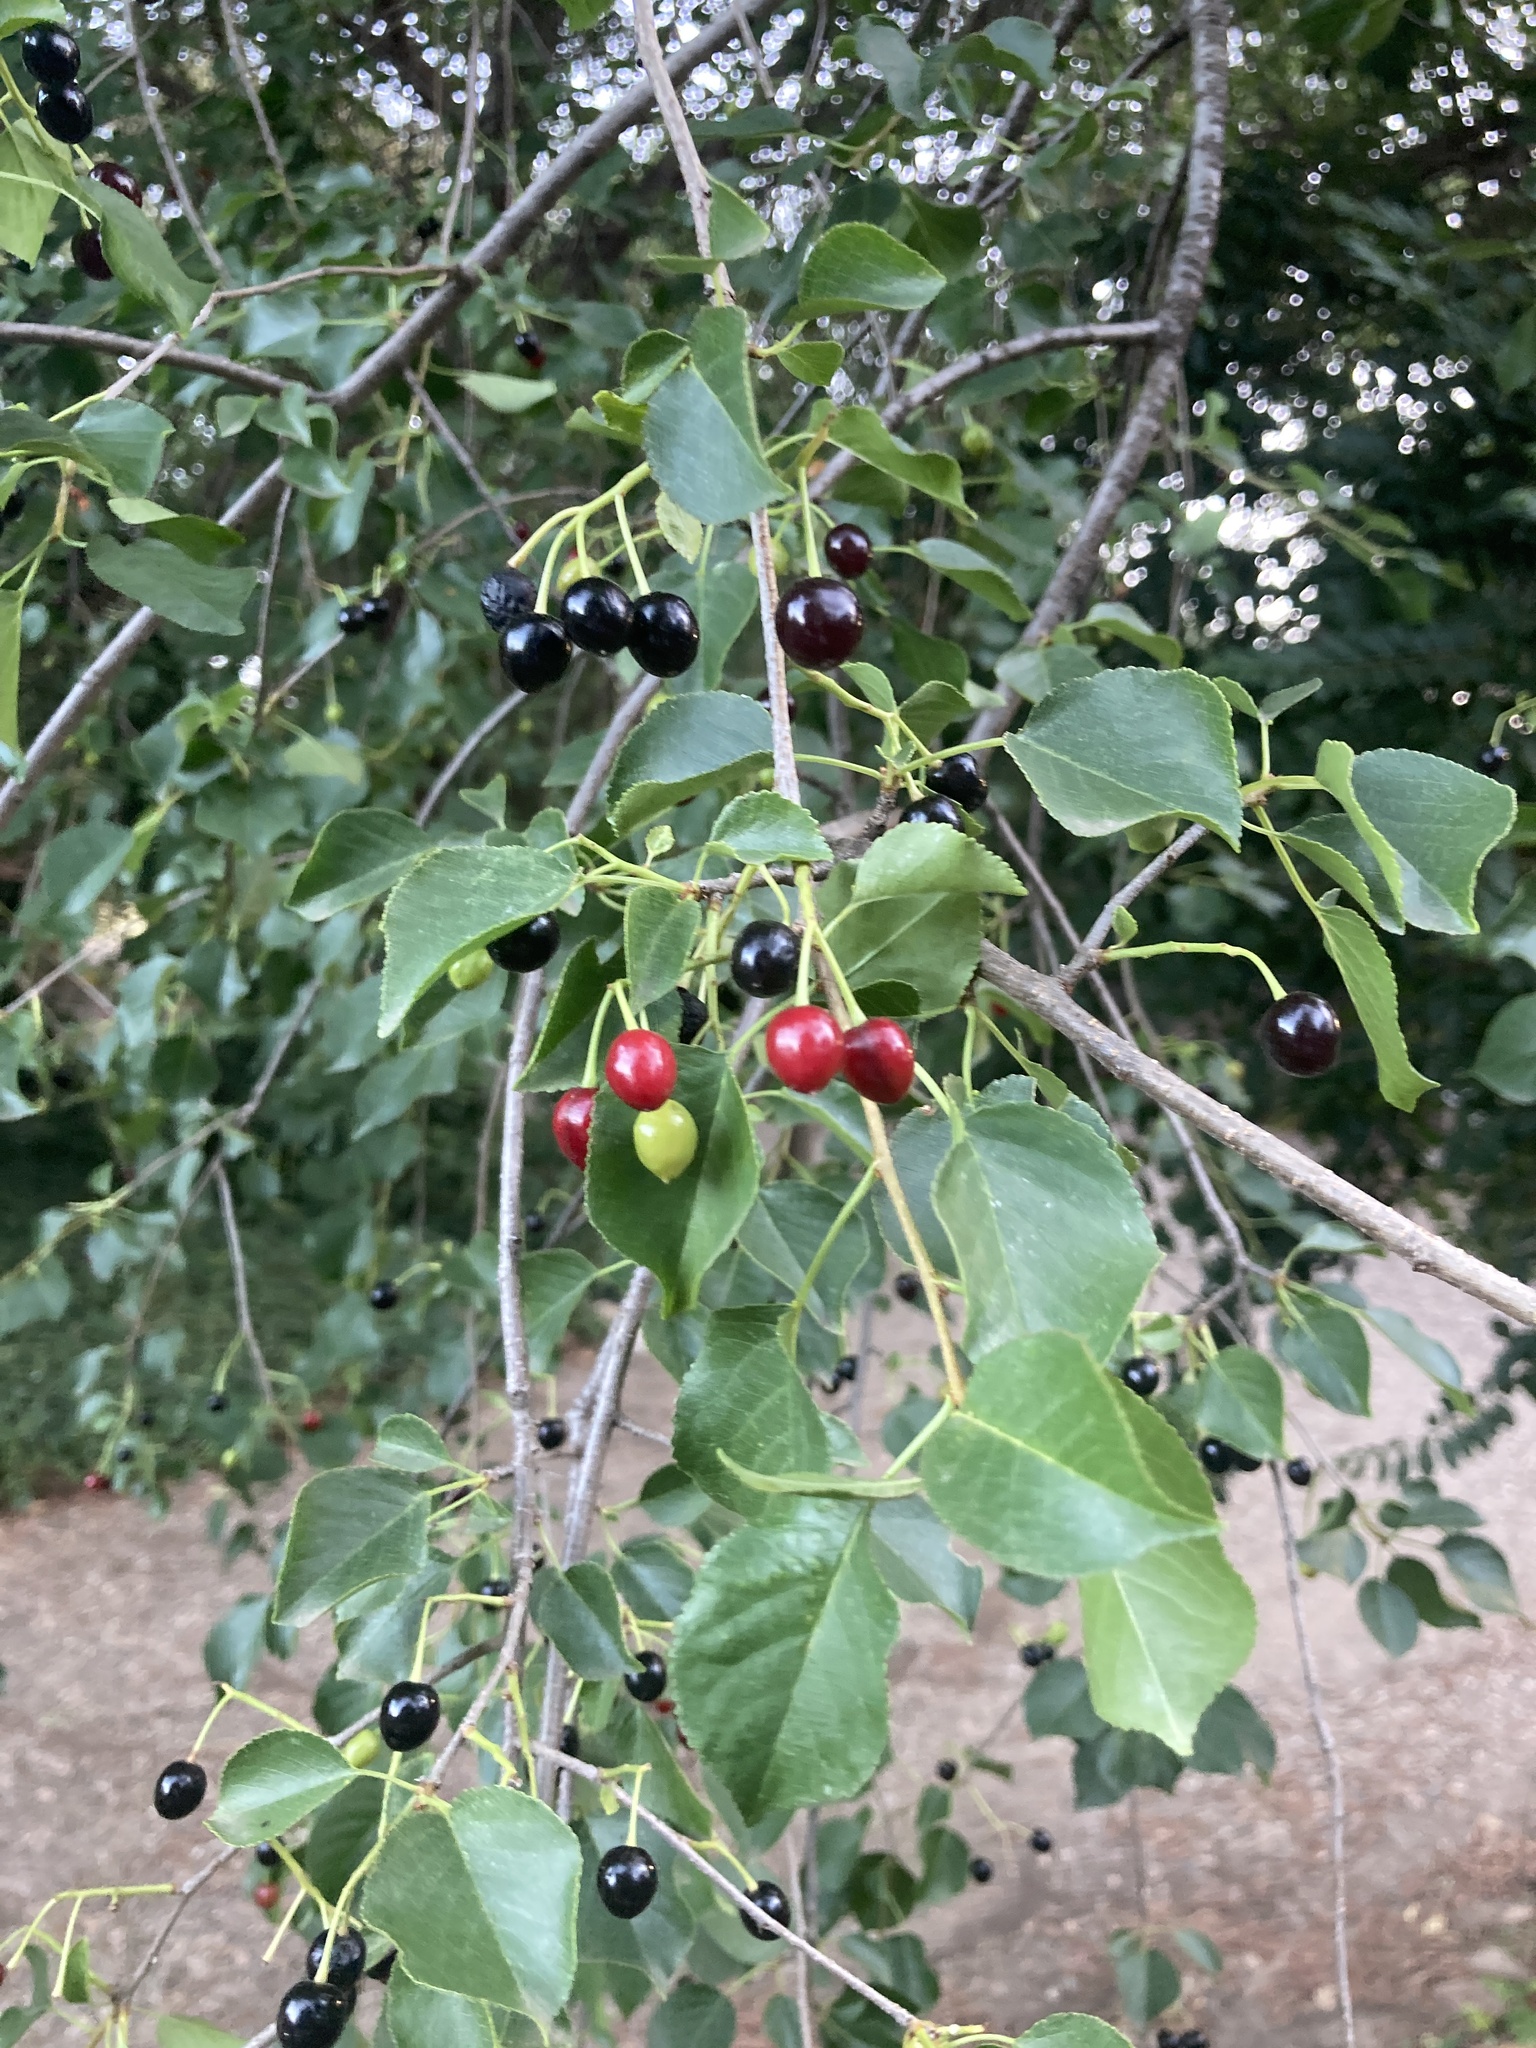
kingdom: Plantae
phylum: Tracheophyta
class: Magnoliopsida
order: Rosales
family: Rosaceae
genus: Prunus
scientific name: Prunus mahaleb
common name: Mahaleb cherry
